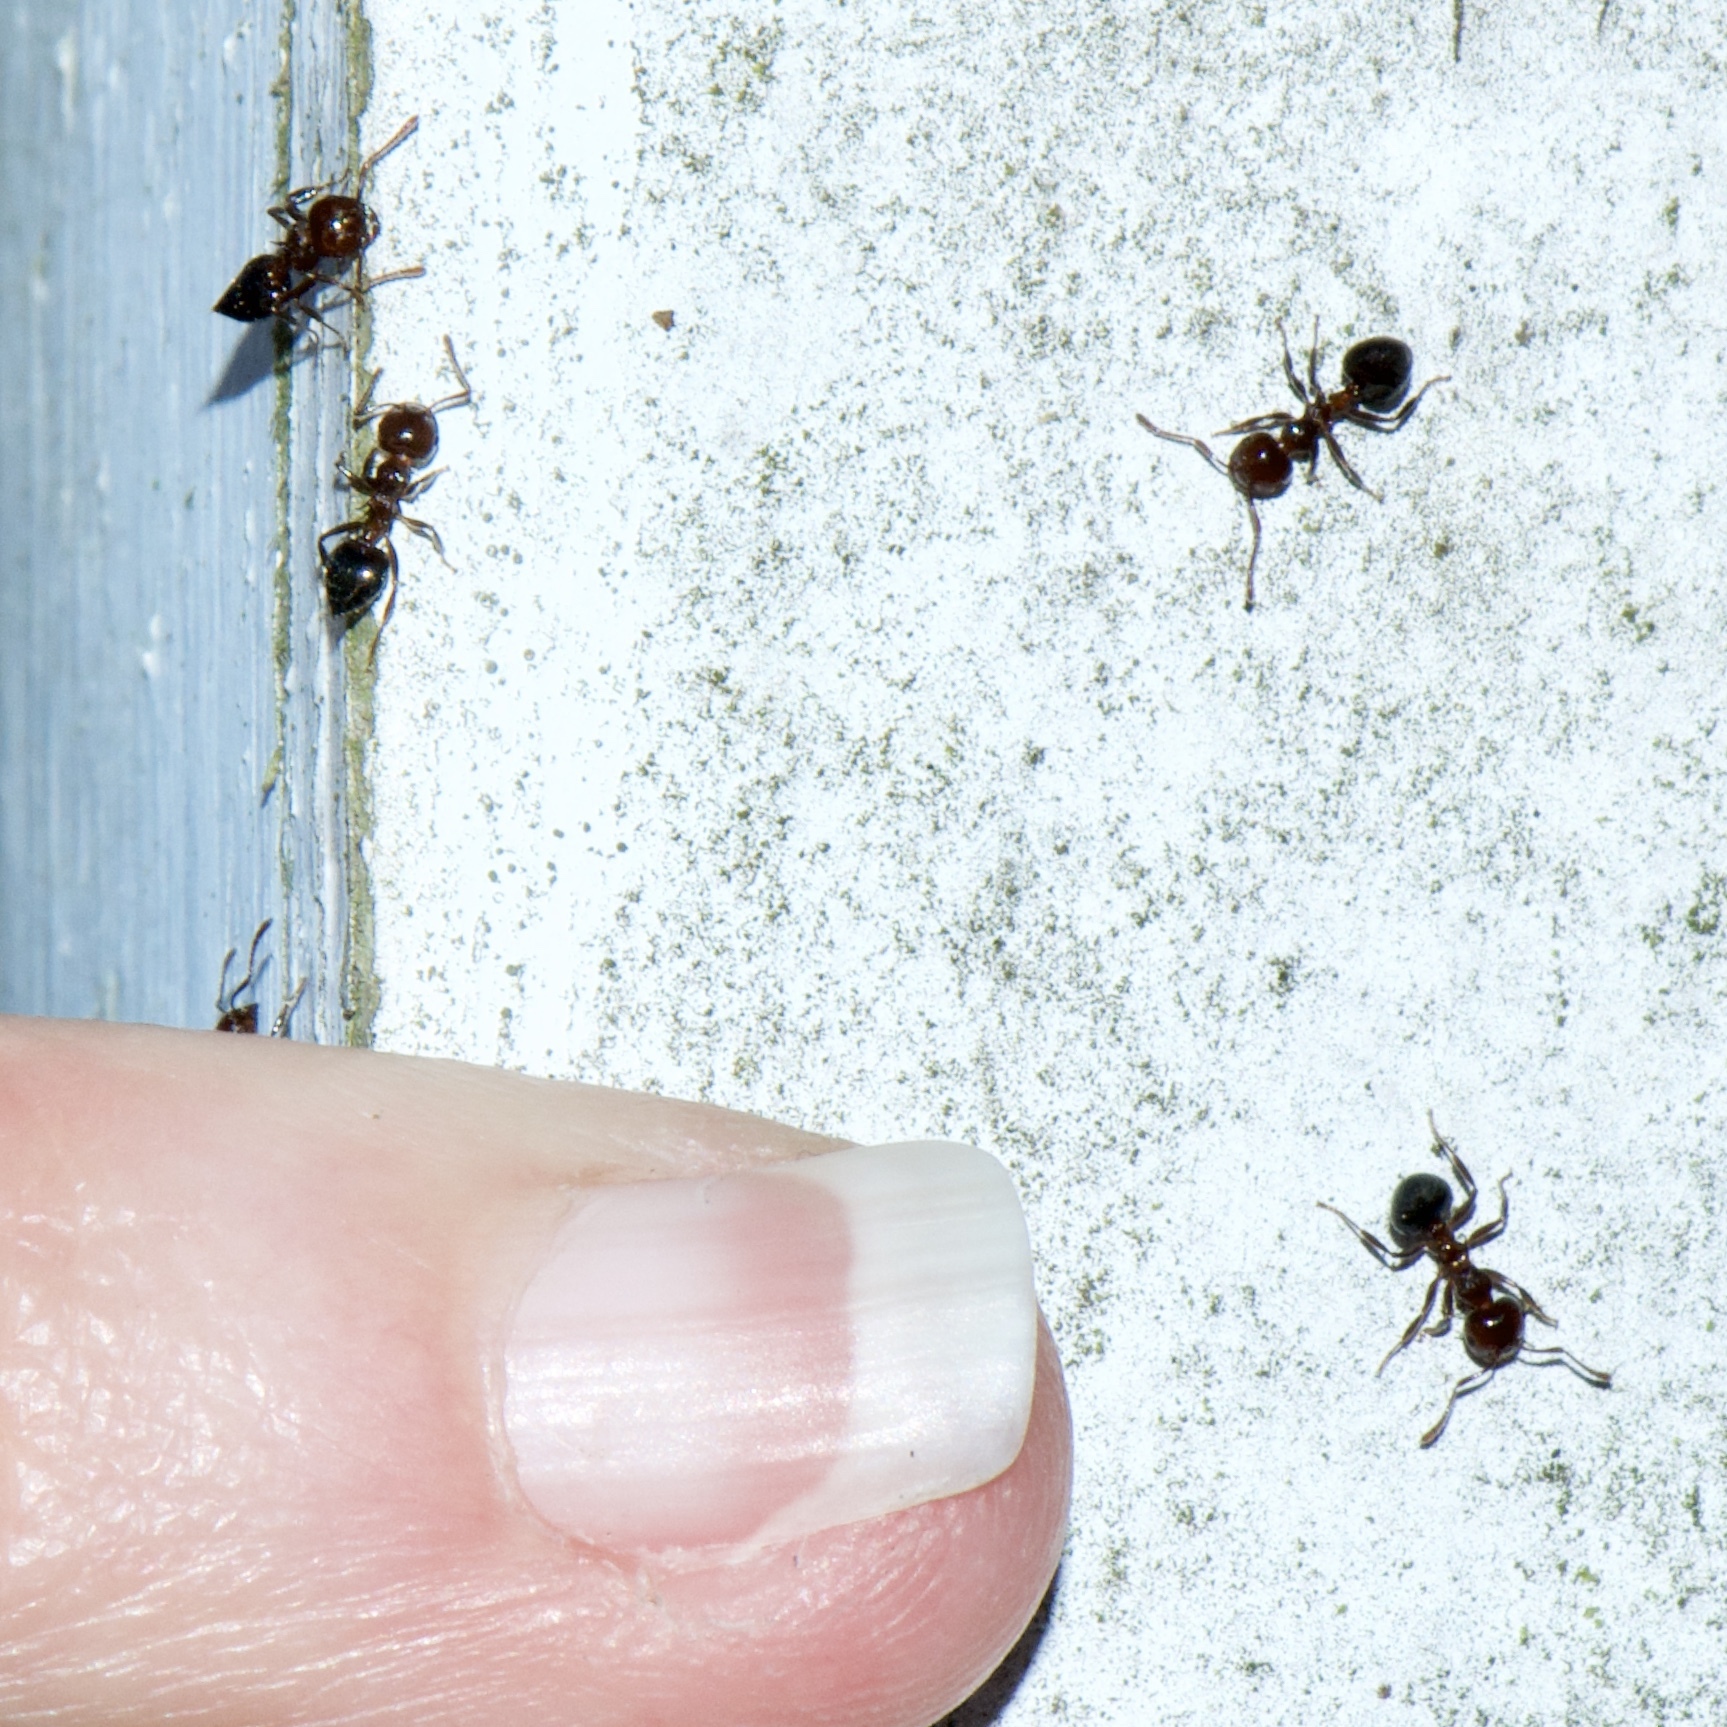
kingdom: Animalia
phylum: Arthropoda
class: Insecta
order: Hymenoptera
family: Formicidae
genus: Crematogaster
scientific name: Crematogaster pilosa
